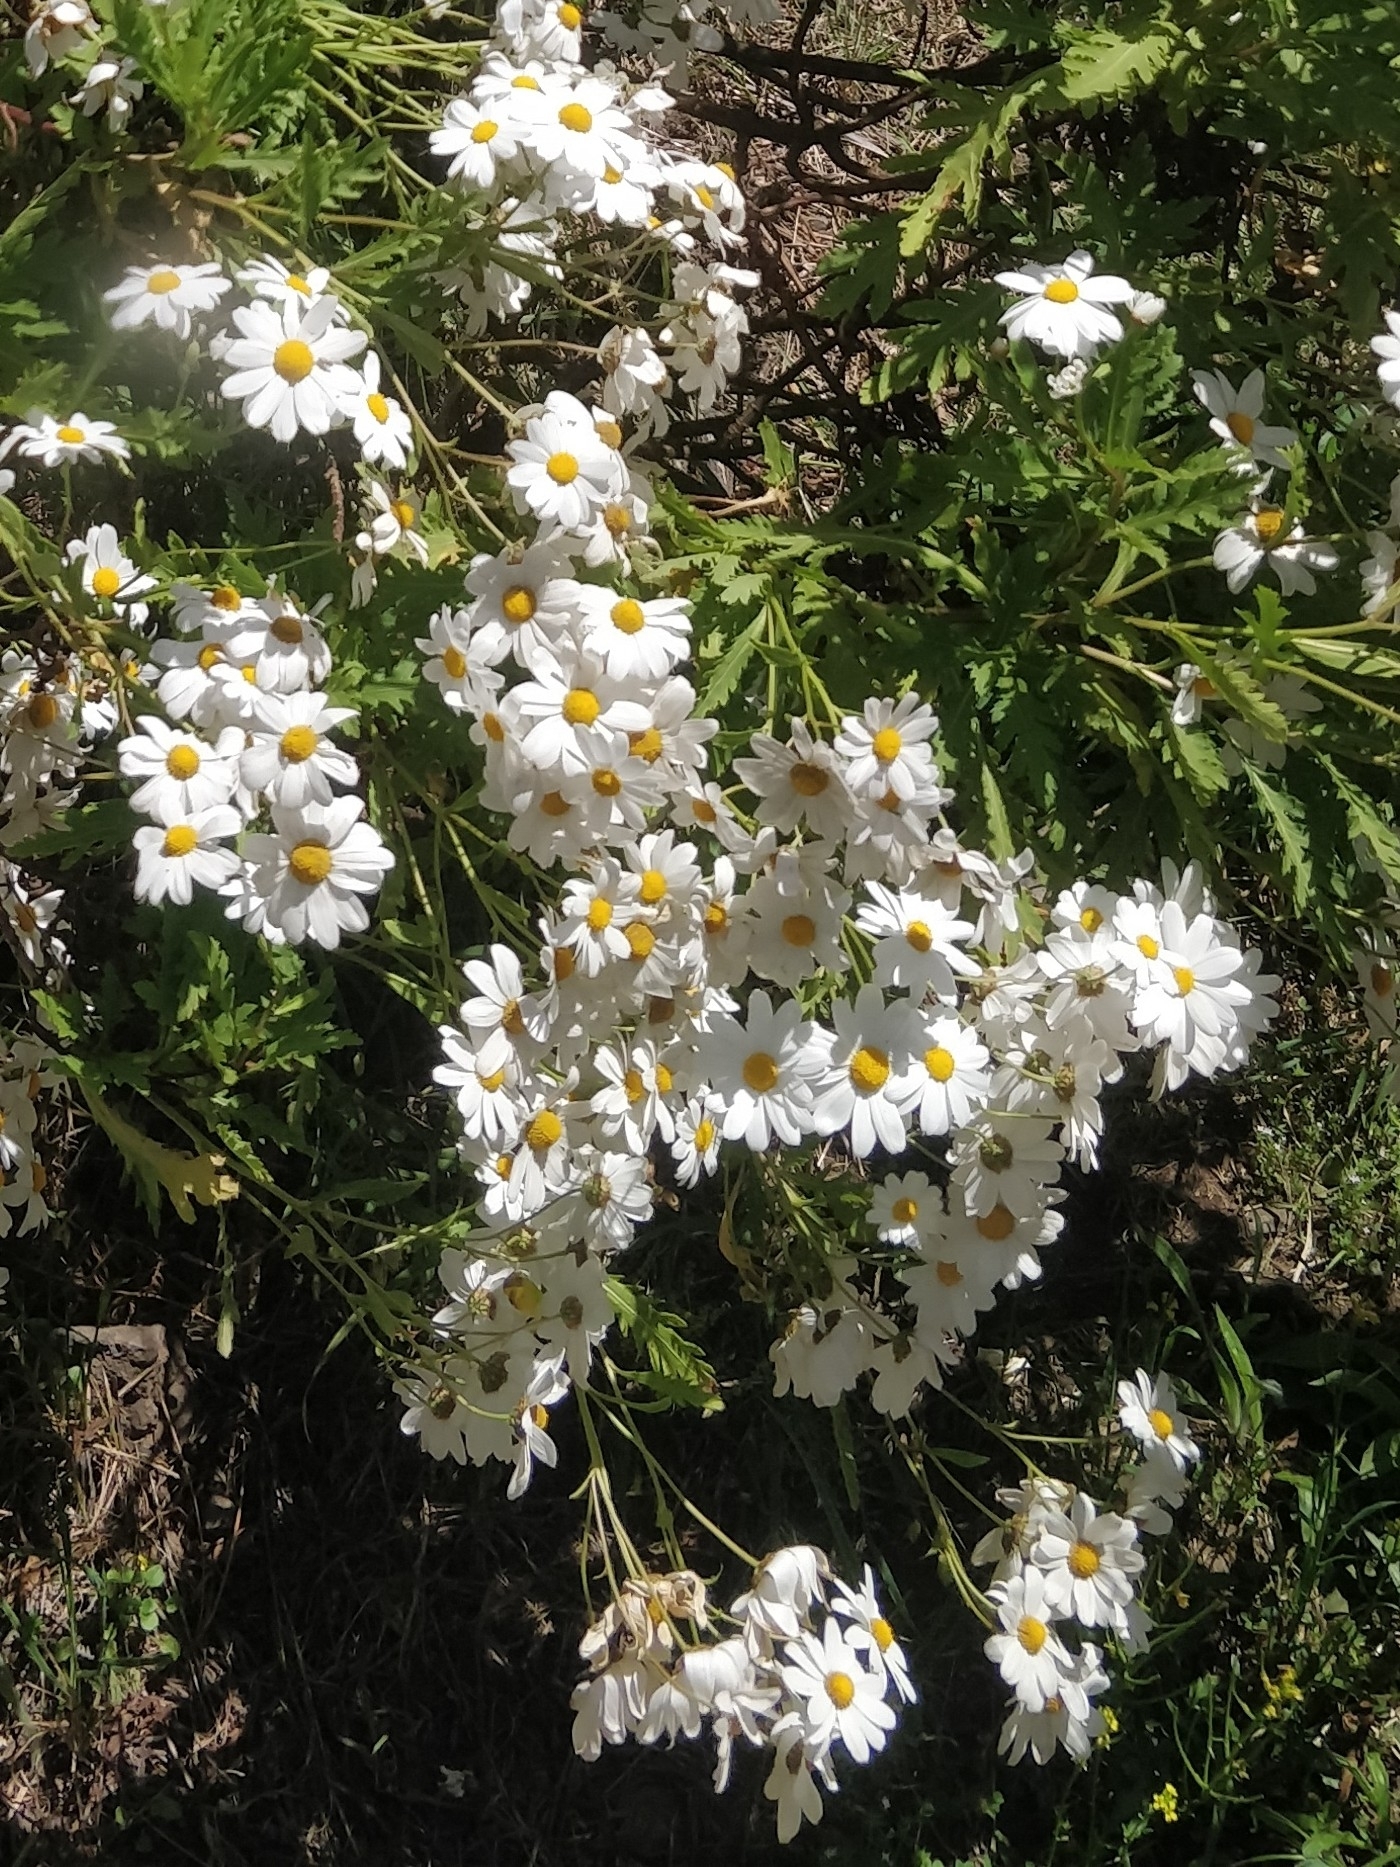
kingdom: Plantae
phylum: Tracheophyta
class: Magnoliopsida
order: Asterales
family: Asteraceae
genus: Argyranthemum
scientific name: Argyranthemum pinnatifidum
